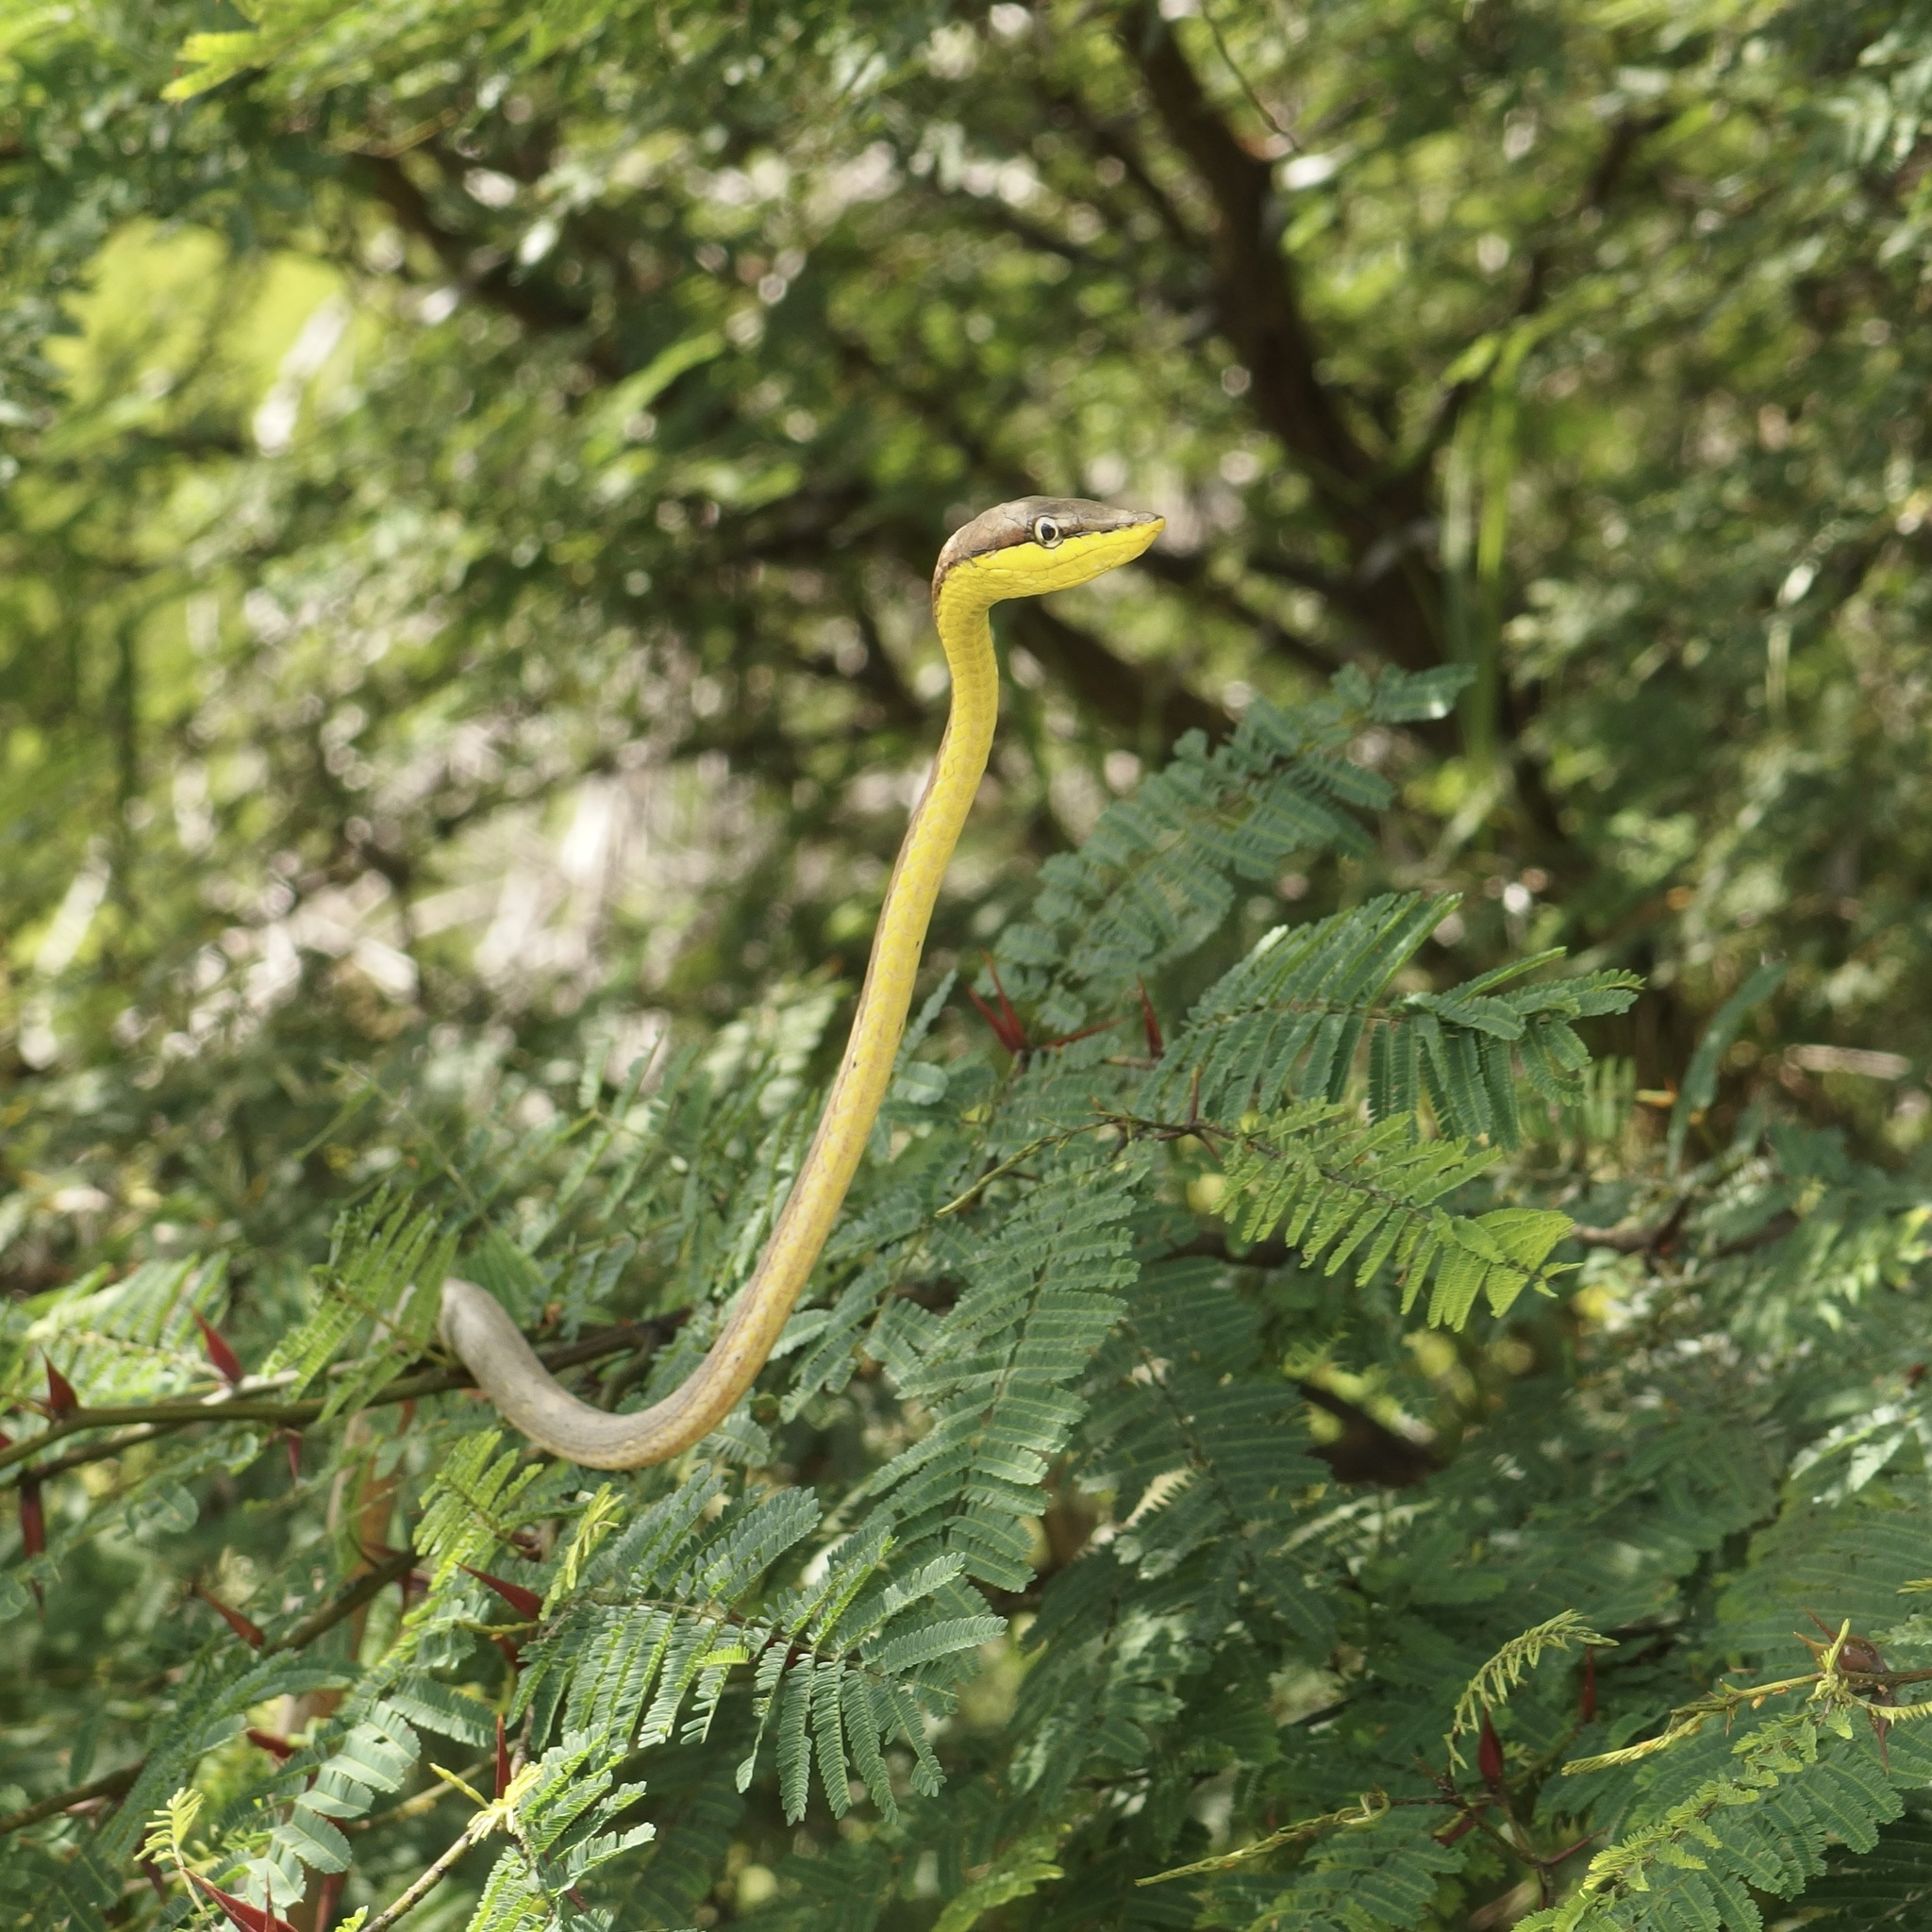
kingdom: Animalia
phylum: Chordata
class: Squamata
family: Colubridae
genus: Oxybelis
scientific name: Oxybelis microphthalmus
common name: Thrornscrub vine snake
